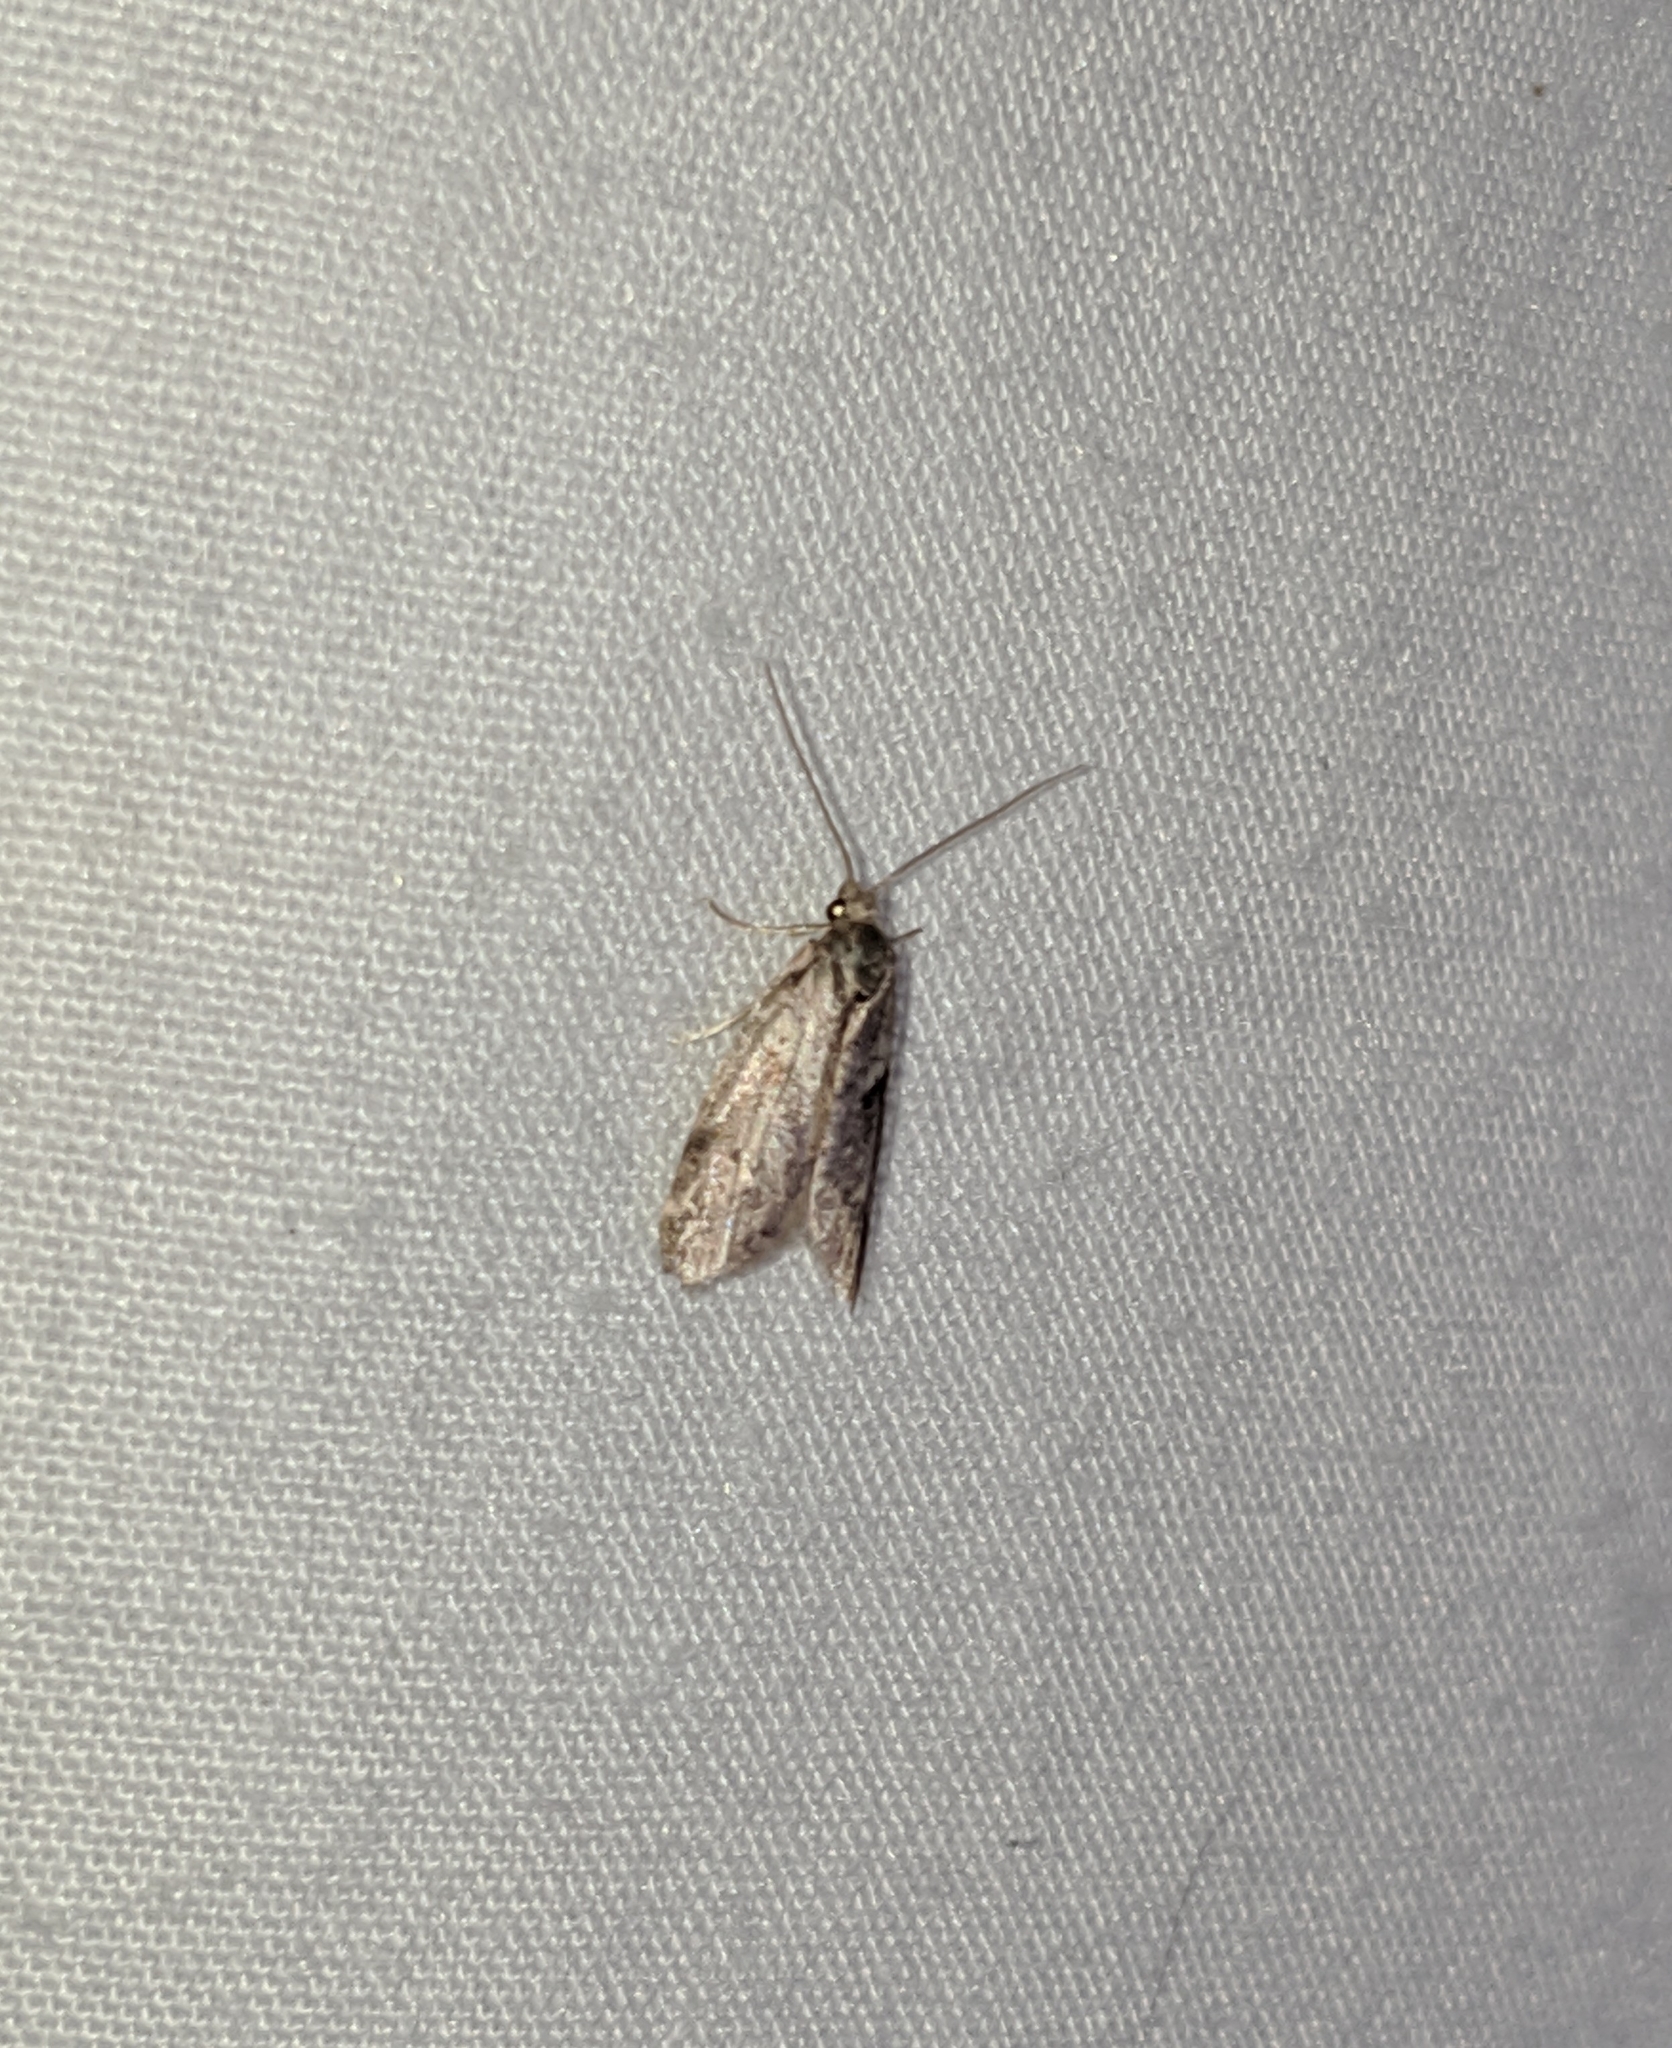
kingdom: Animalia
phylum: Arthropoda
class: Insecta
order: Lepidoptera
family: Copromorphidae
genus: Lotisma
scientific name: Lotisma trigonana
